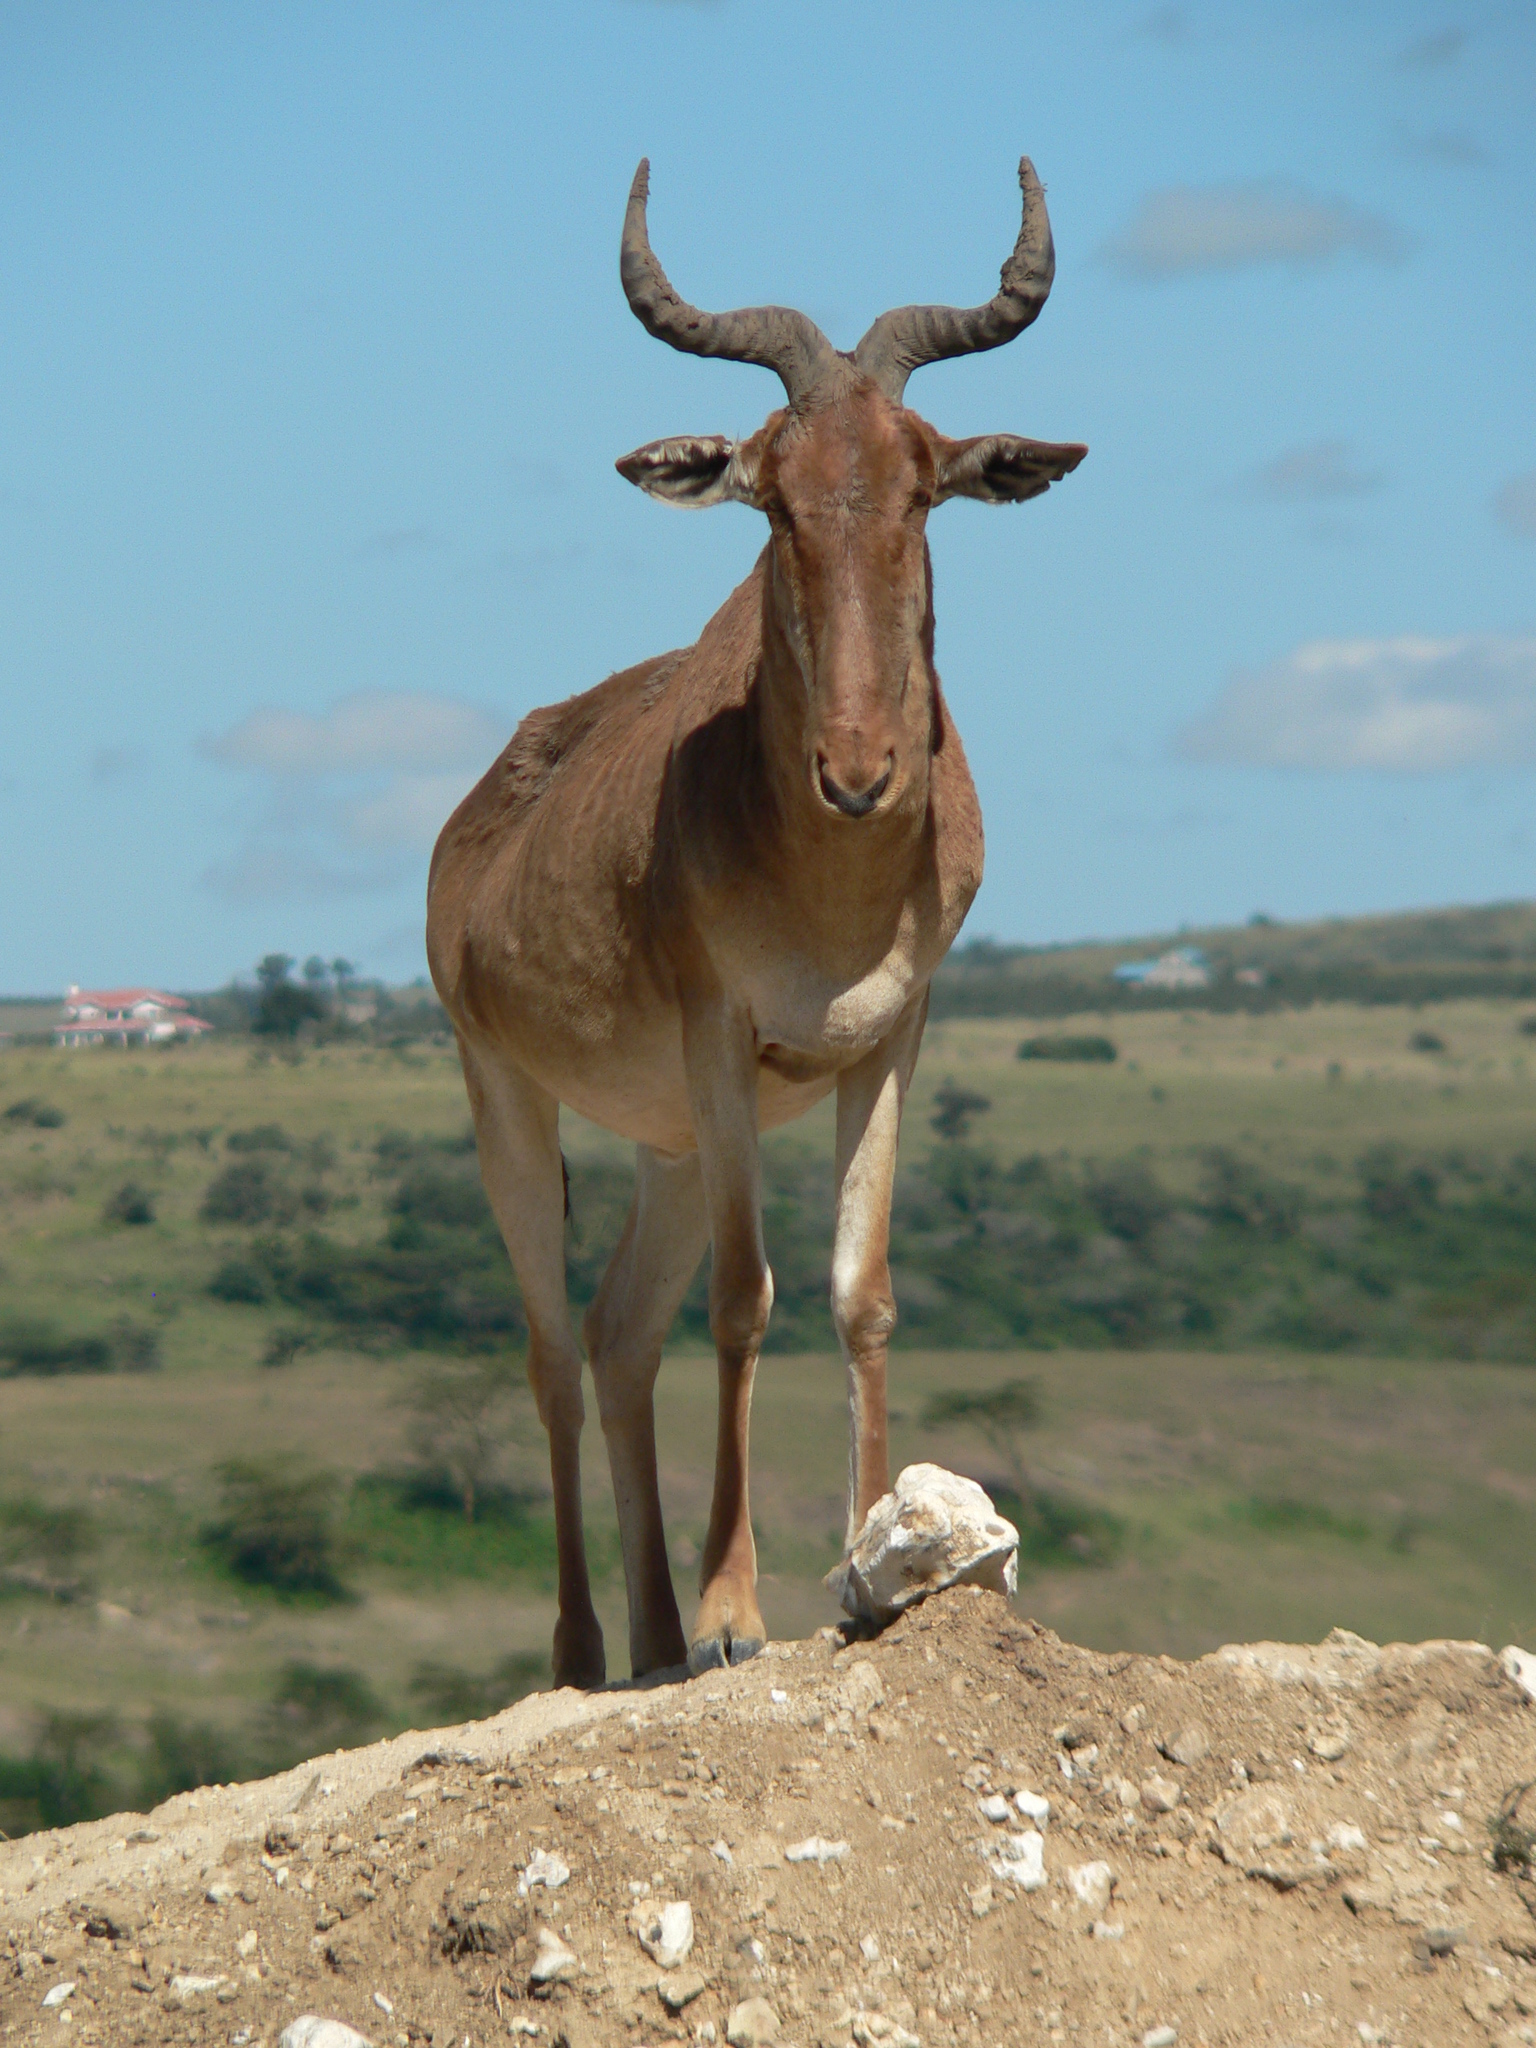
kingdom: Animalia
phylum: Chordata
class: Mammalia
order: Artiodactyla
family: Bovidae
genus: Alcelaphus
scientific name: Alcelaphus buselaphus
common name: Hartebeest
